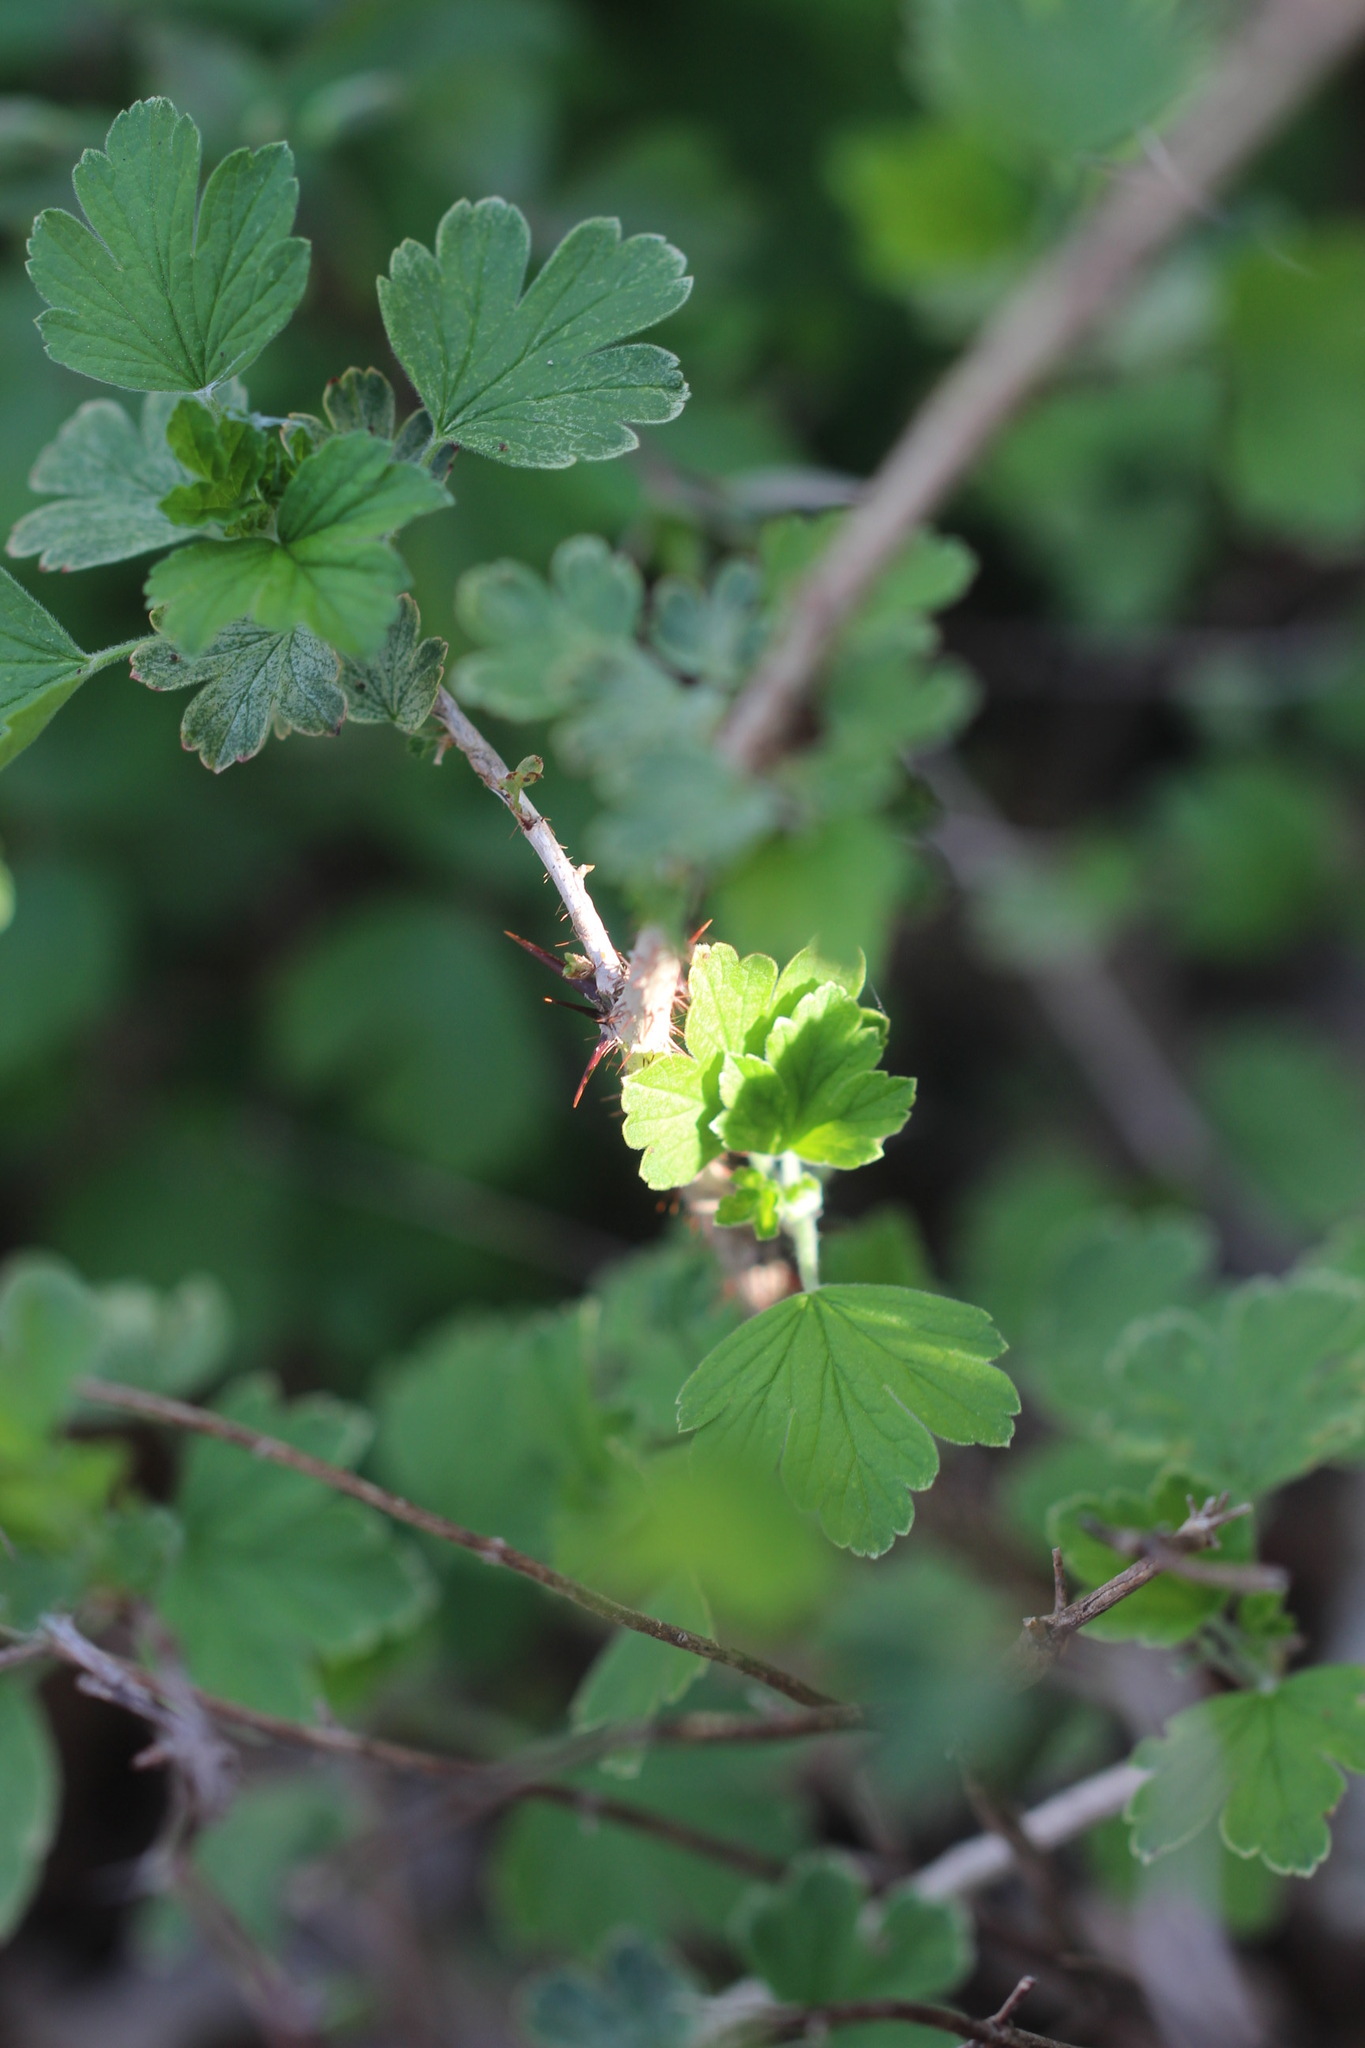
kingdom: Plantae
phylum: Tracheophyta
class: Magnoliopsida
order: Saxifragales
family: Grossulariaceae
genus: Ribes
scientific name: Ribes missouriense
